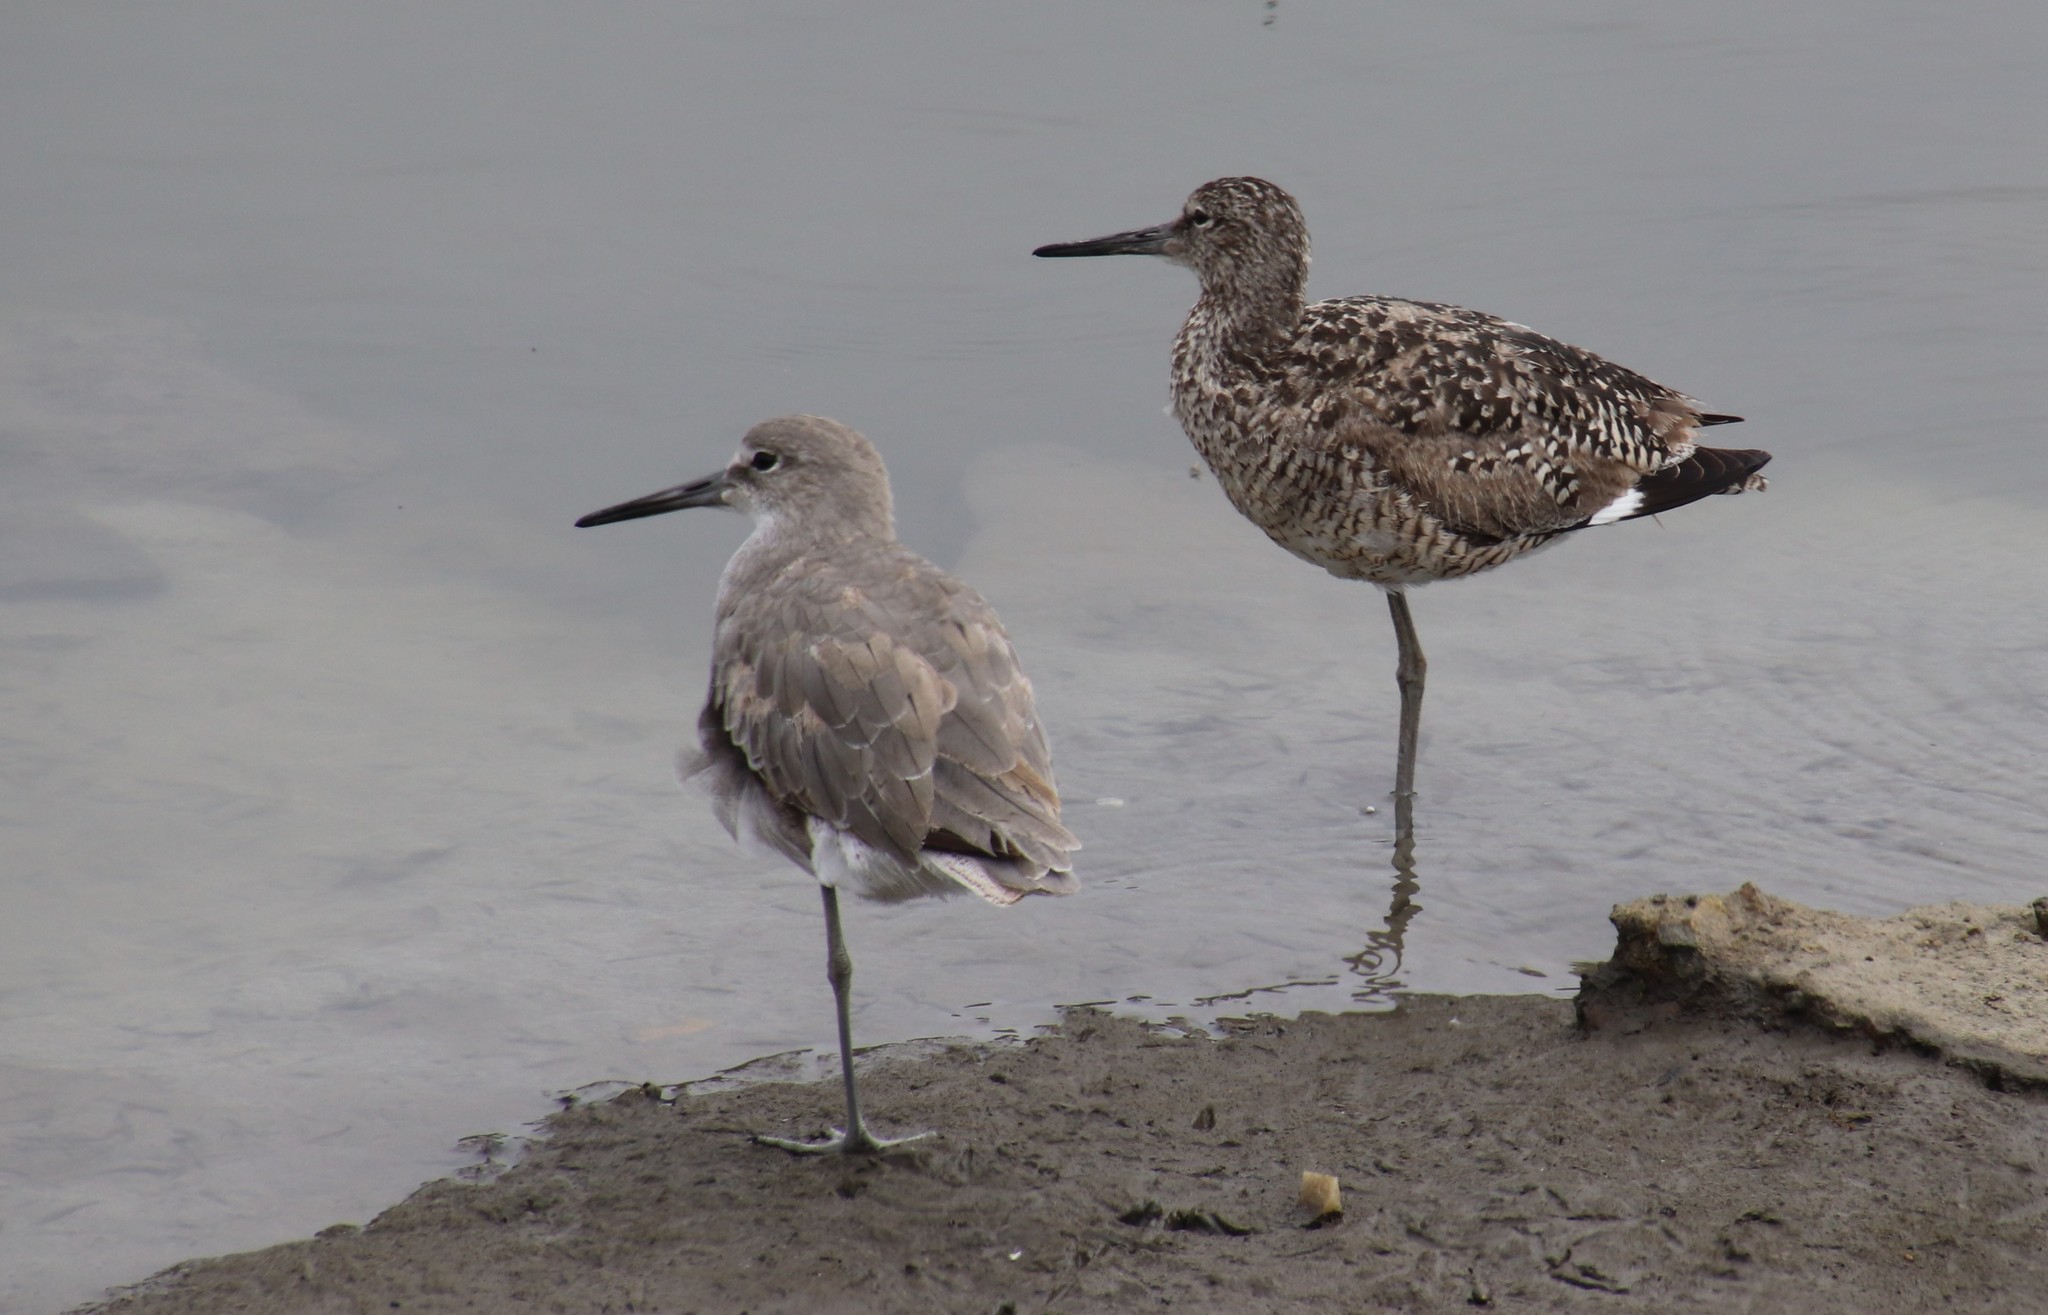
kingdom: Animalia
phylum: Chordata
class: Aves
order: Charadriiformes
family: Scolopacidae
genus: Tringa
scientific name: Tringa semipalmata
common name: Willet
